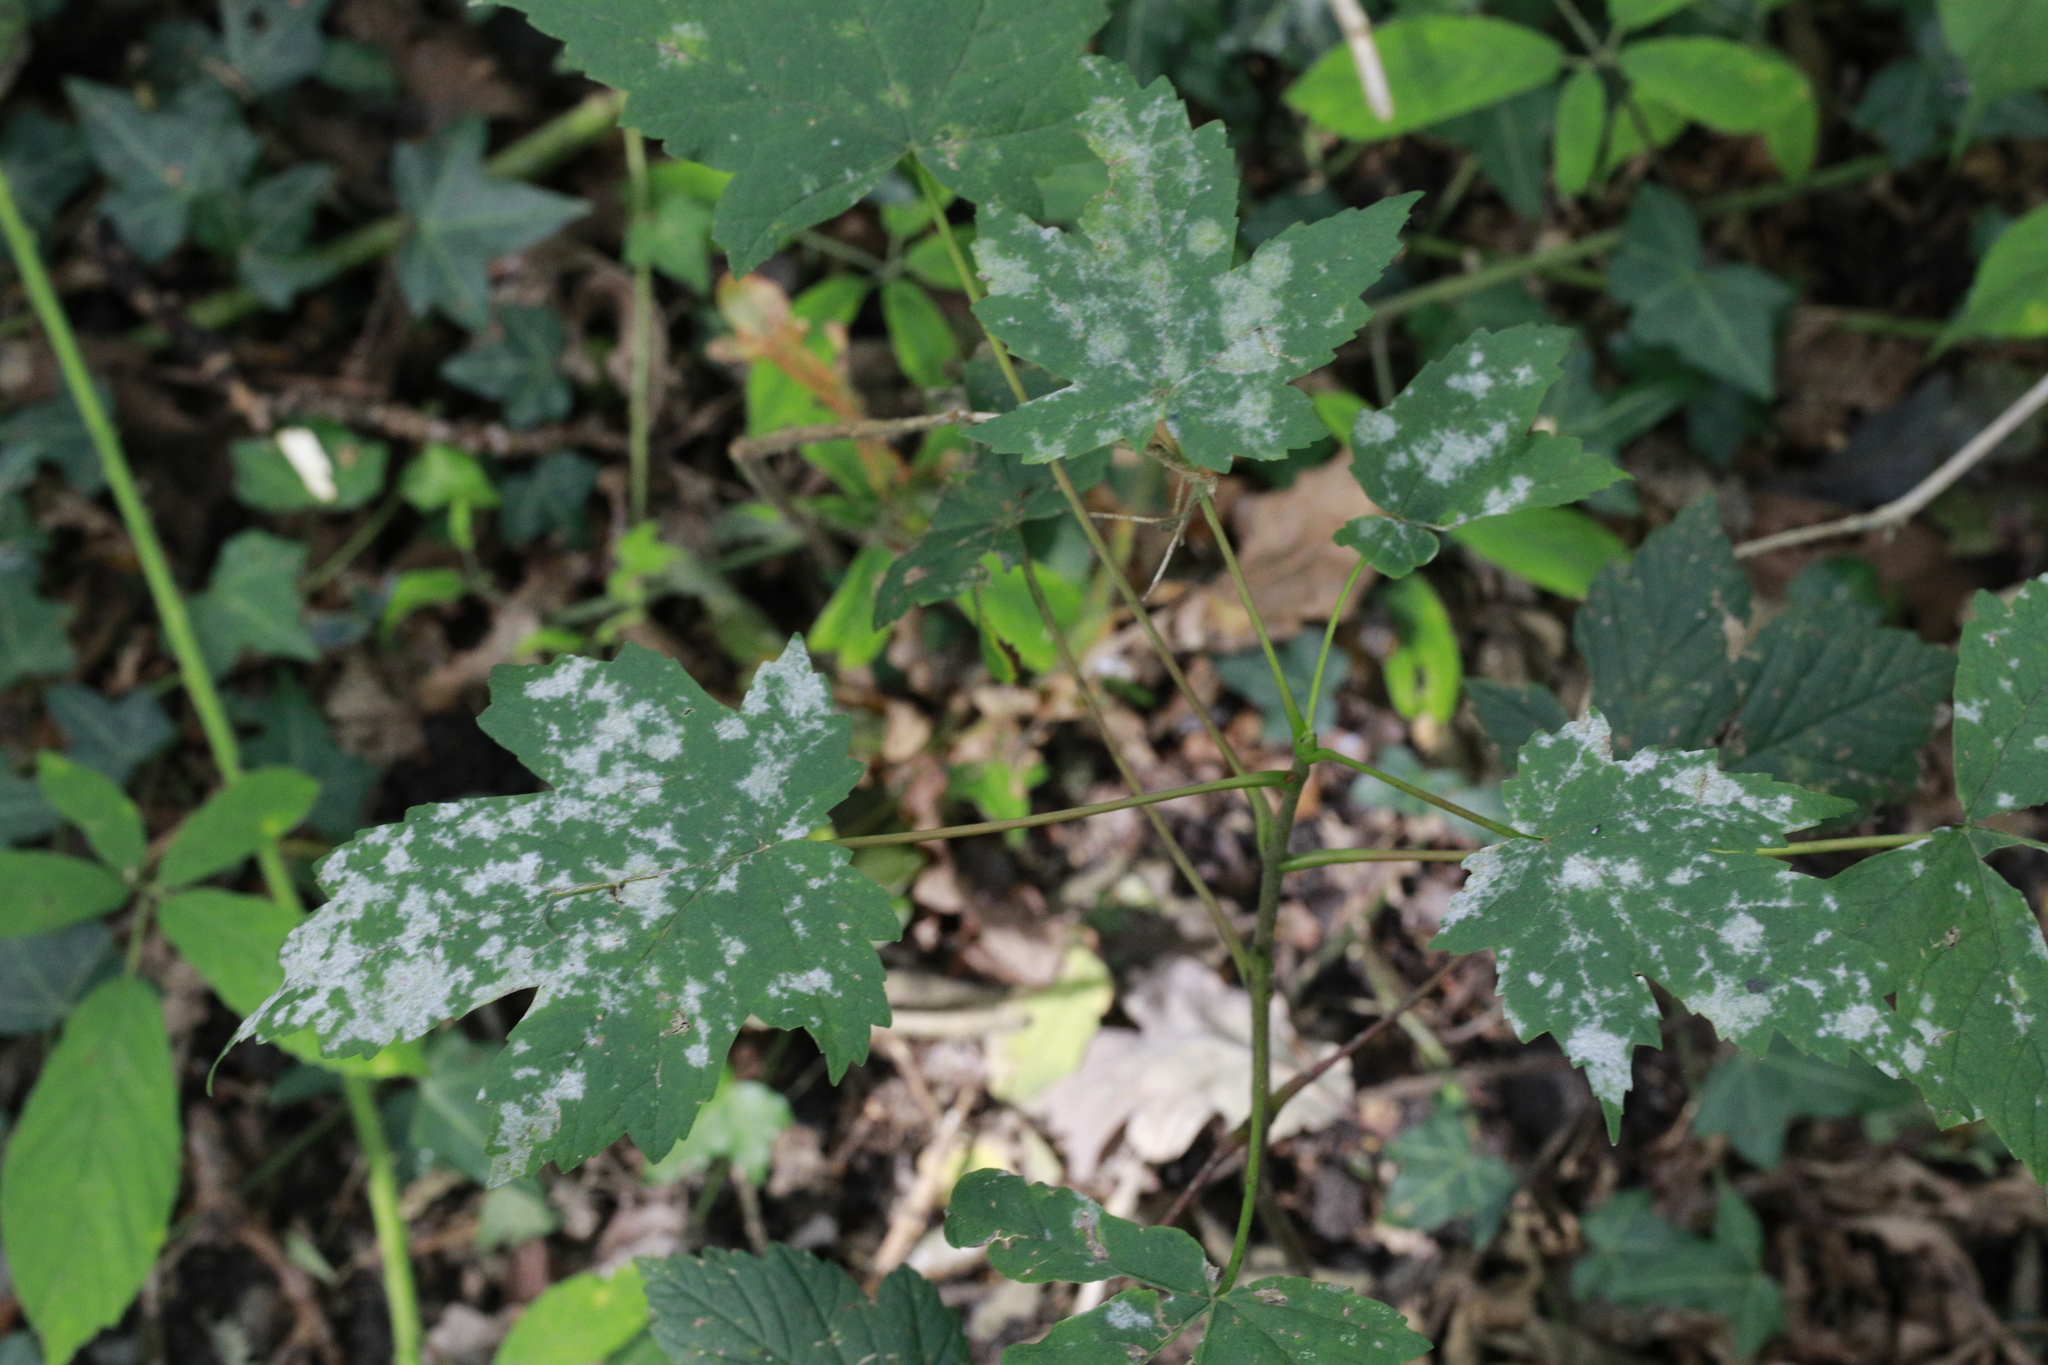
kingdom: Fungi
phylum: Ascomycota
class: Leotiomycetes
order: Helotiales
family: Erysiphaceae
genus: Sawadaea
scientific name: Sawadaea bicornis
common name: Maple mildew
